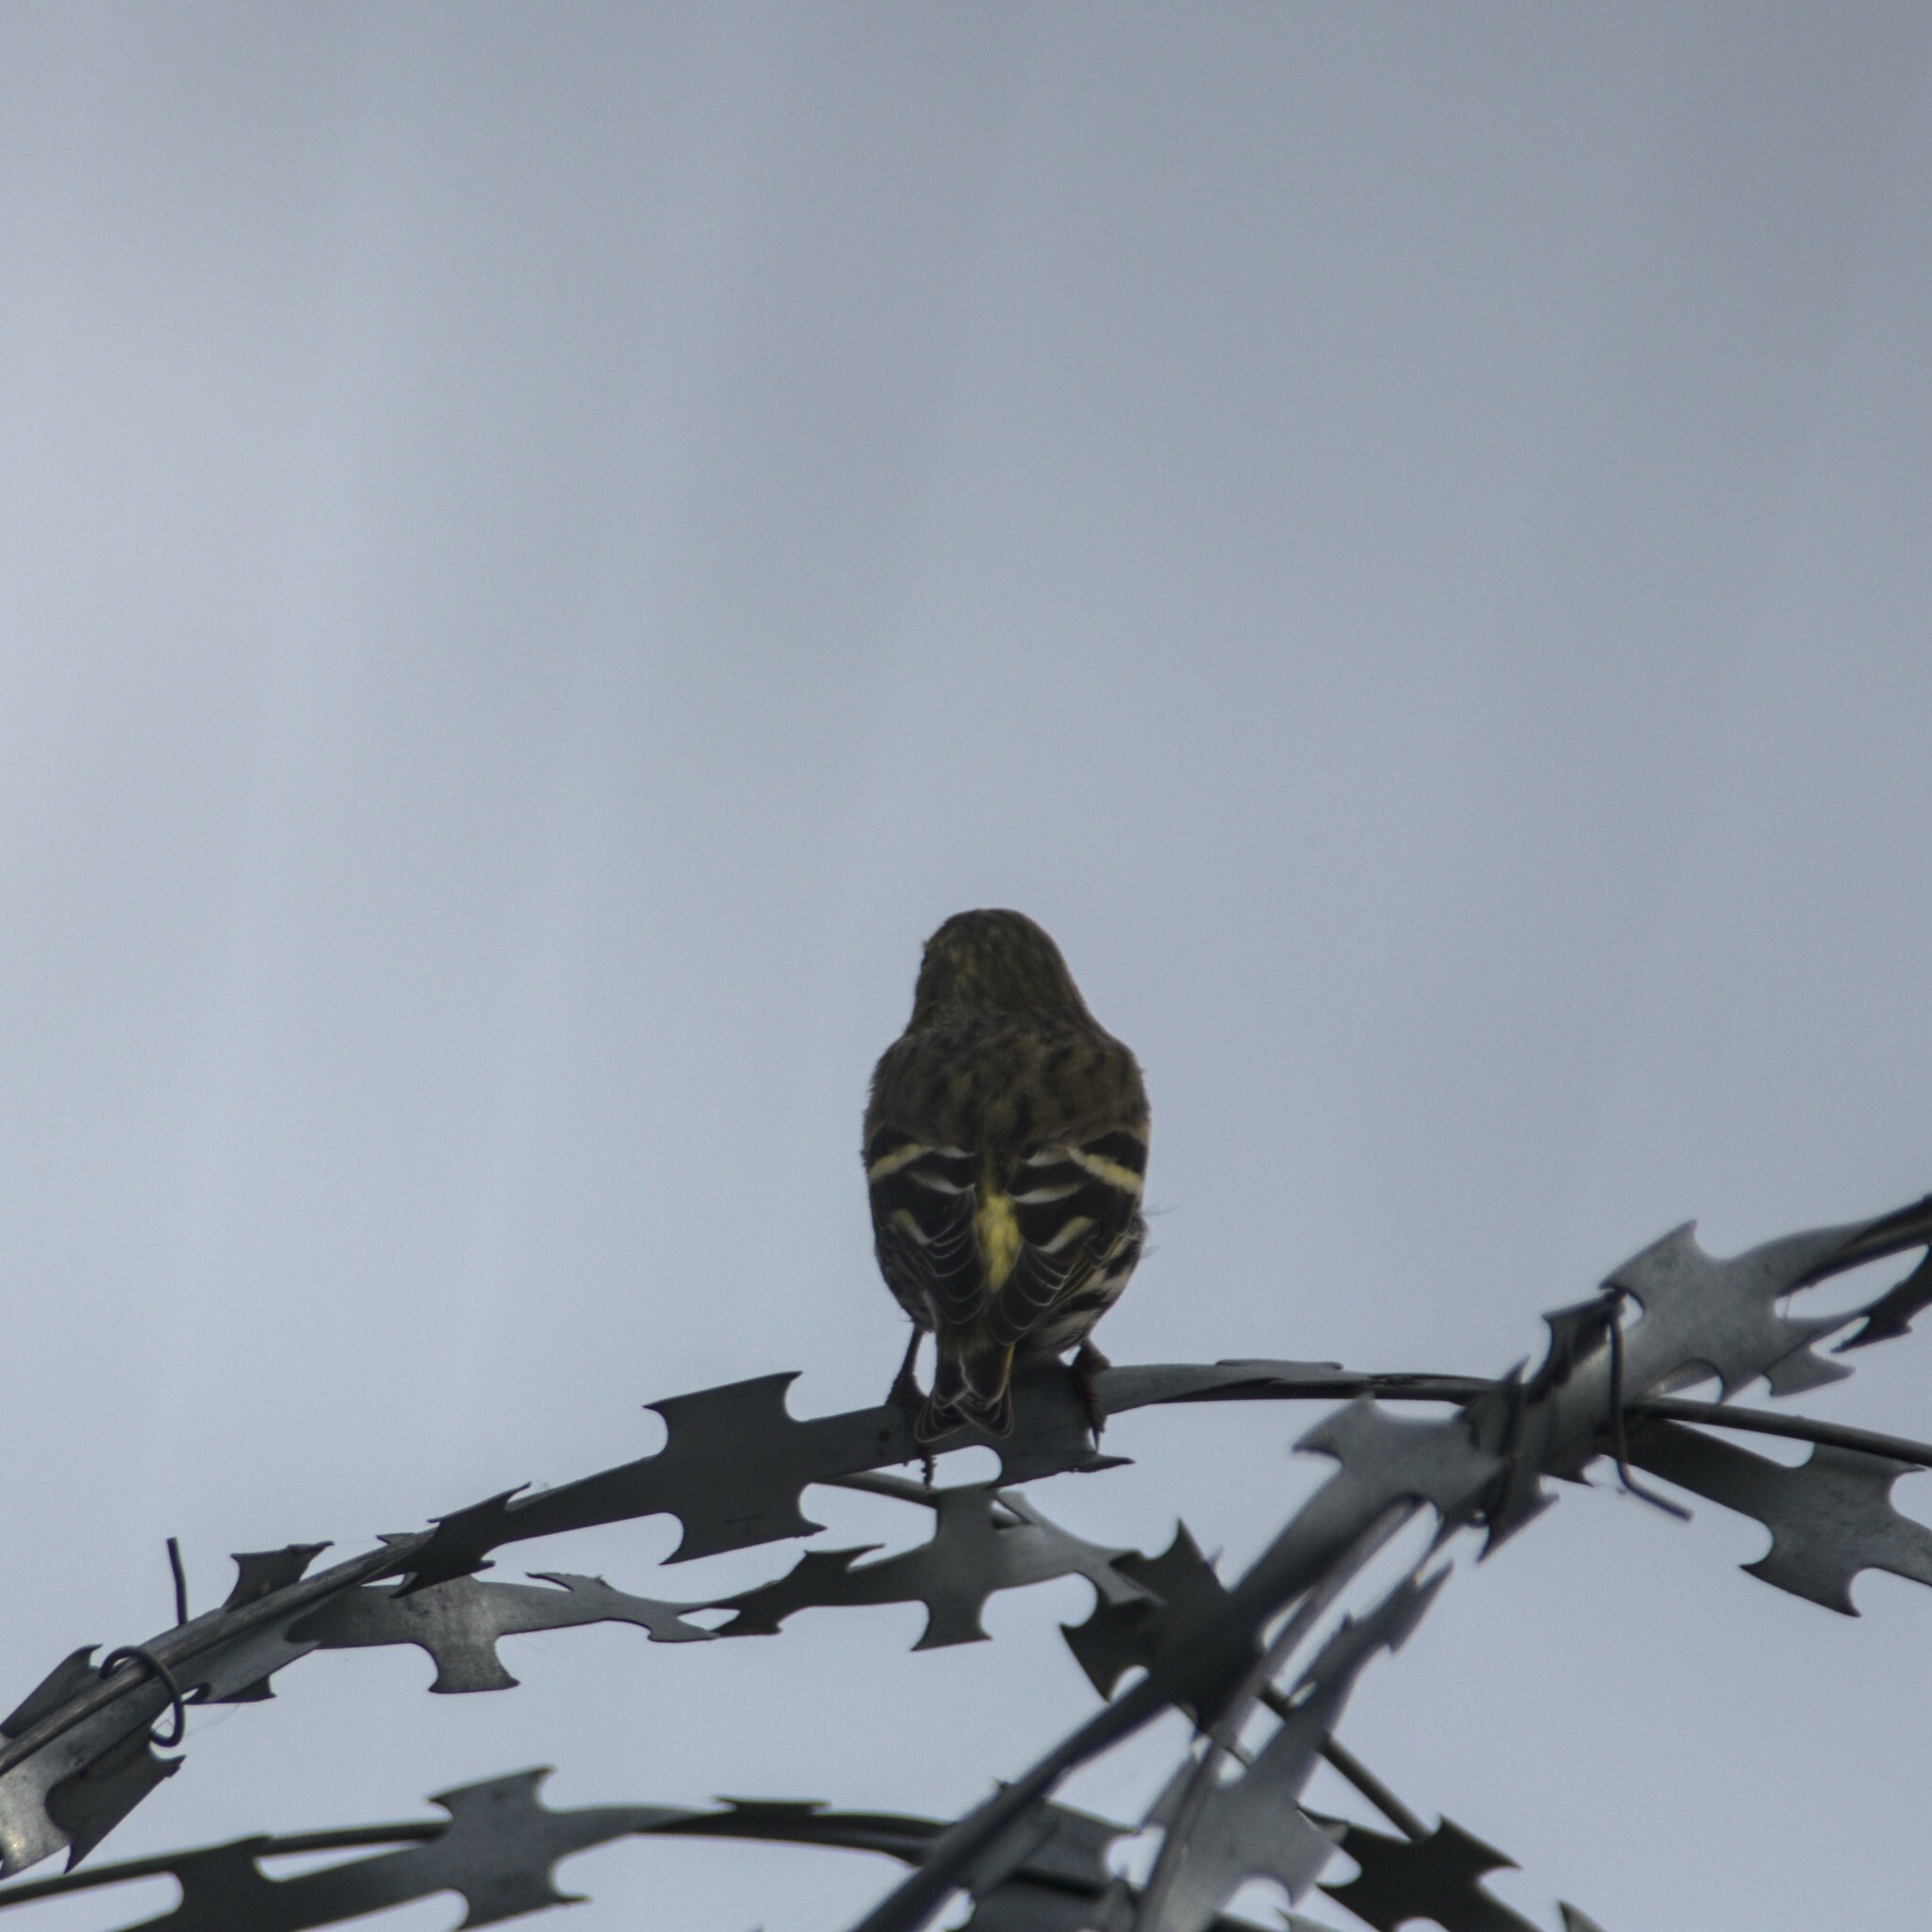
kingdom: Animalia
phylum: Chordata
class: Aves
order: Passeriformes
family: Fringillidae
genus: Spinus
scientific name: Spinus spinus
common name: Eurasian siskin
